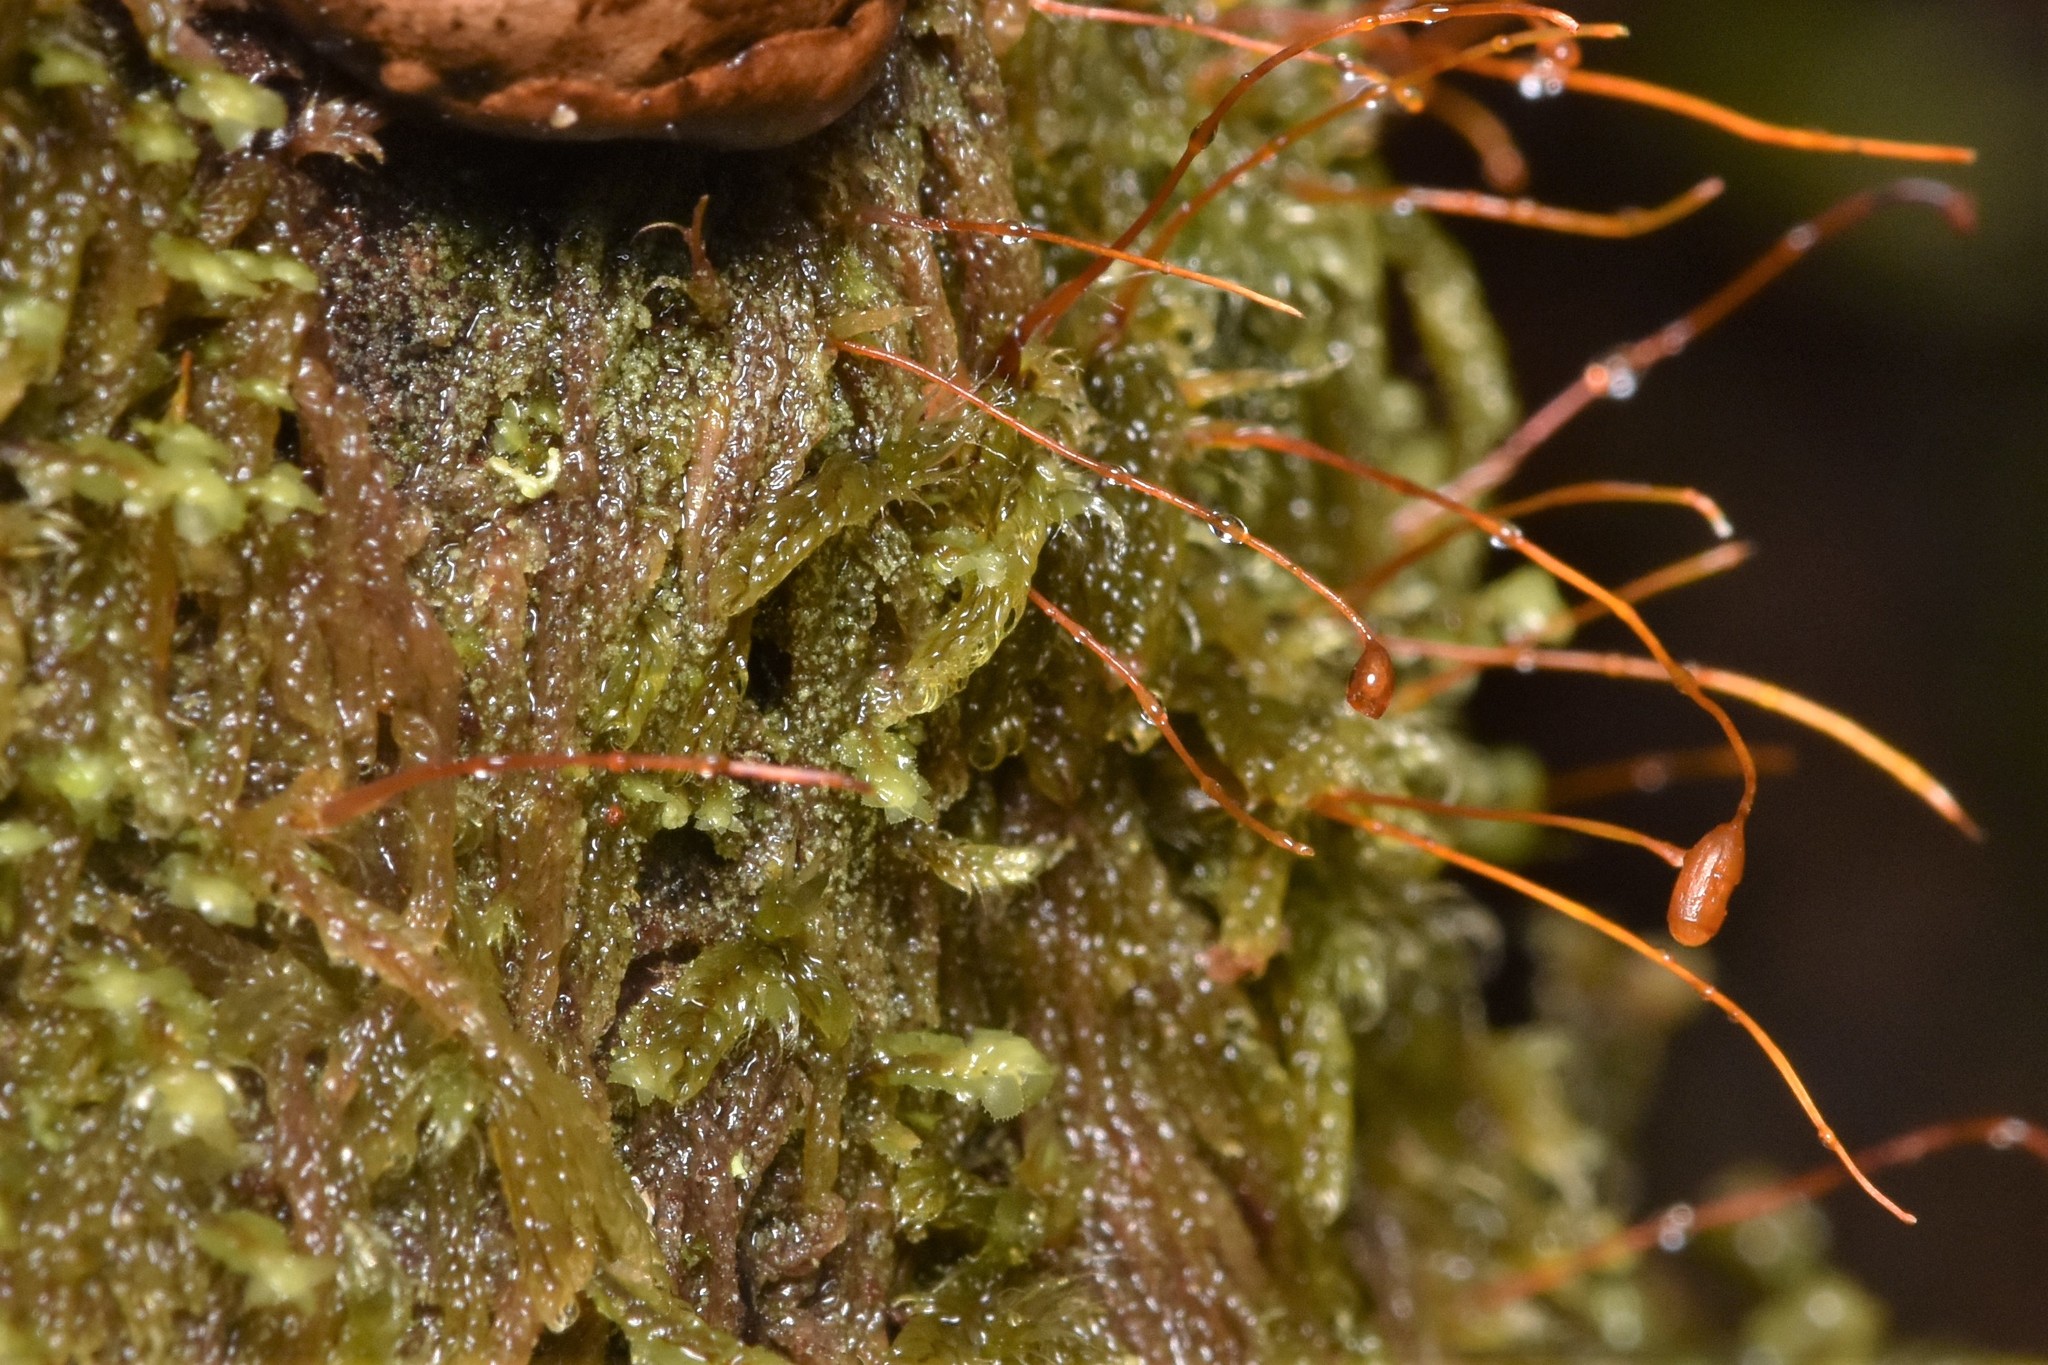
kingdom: Plantae
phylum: Bryophyta
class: Bryopsida
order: Hypnales
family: Pylaisiadelphaceae
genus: Trochophyllohypnum
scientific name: Trochophyllohypnum circinale
